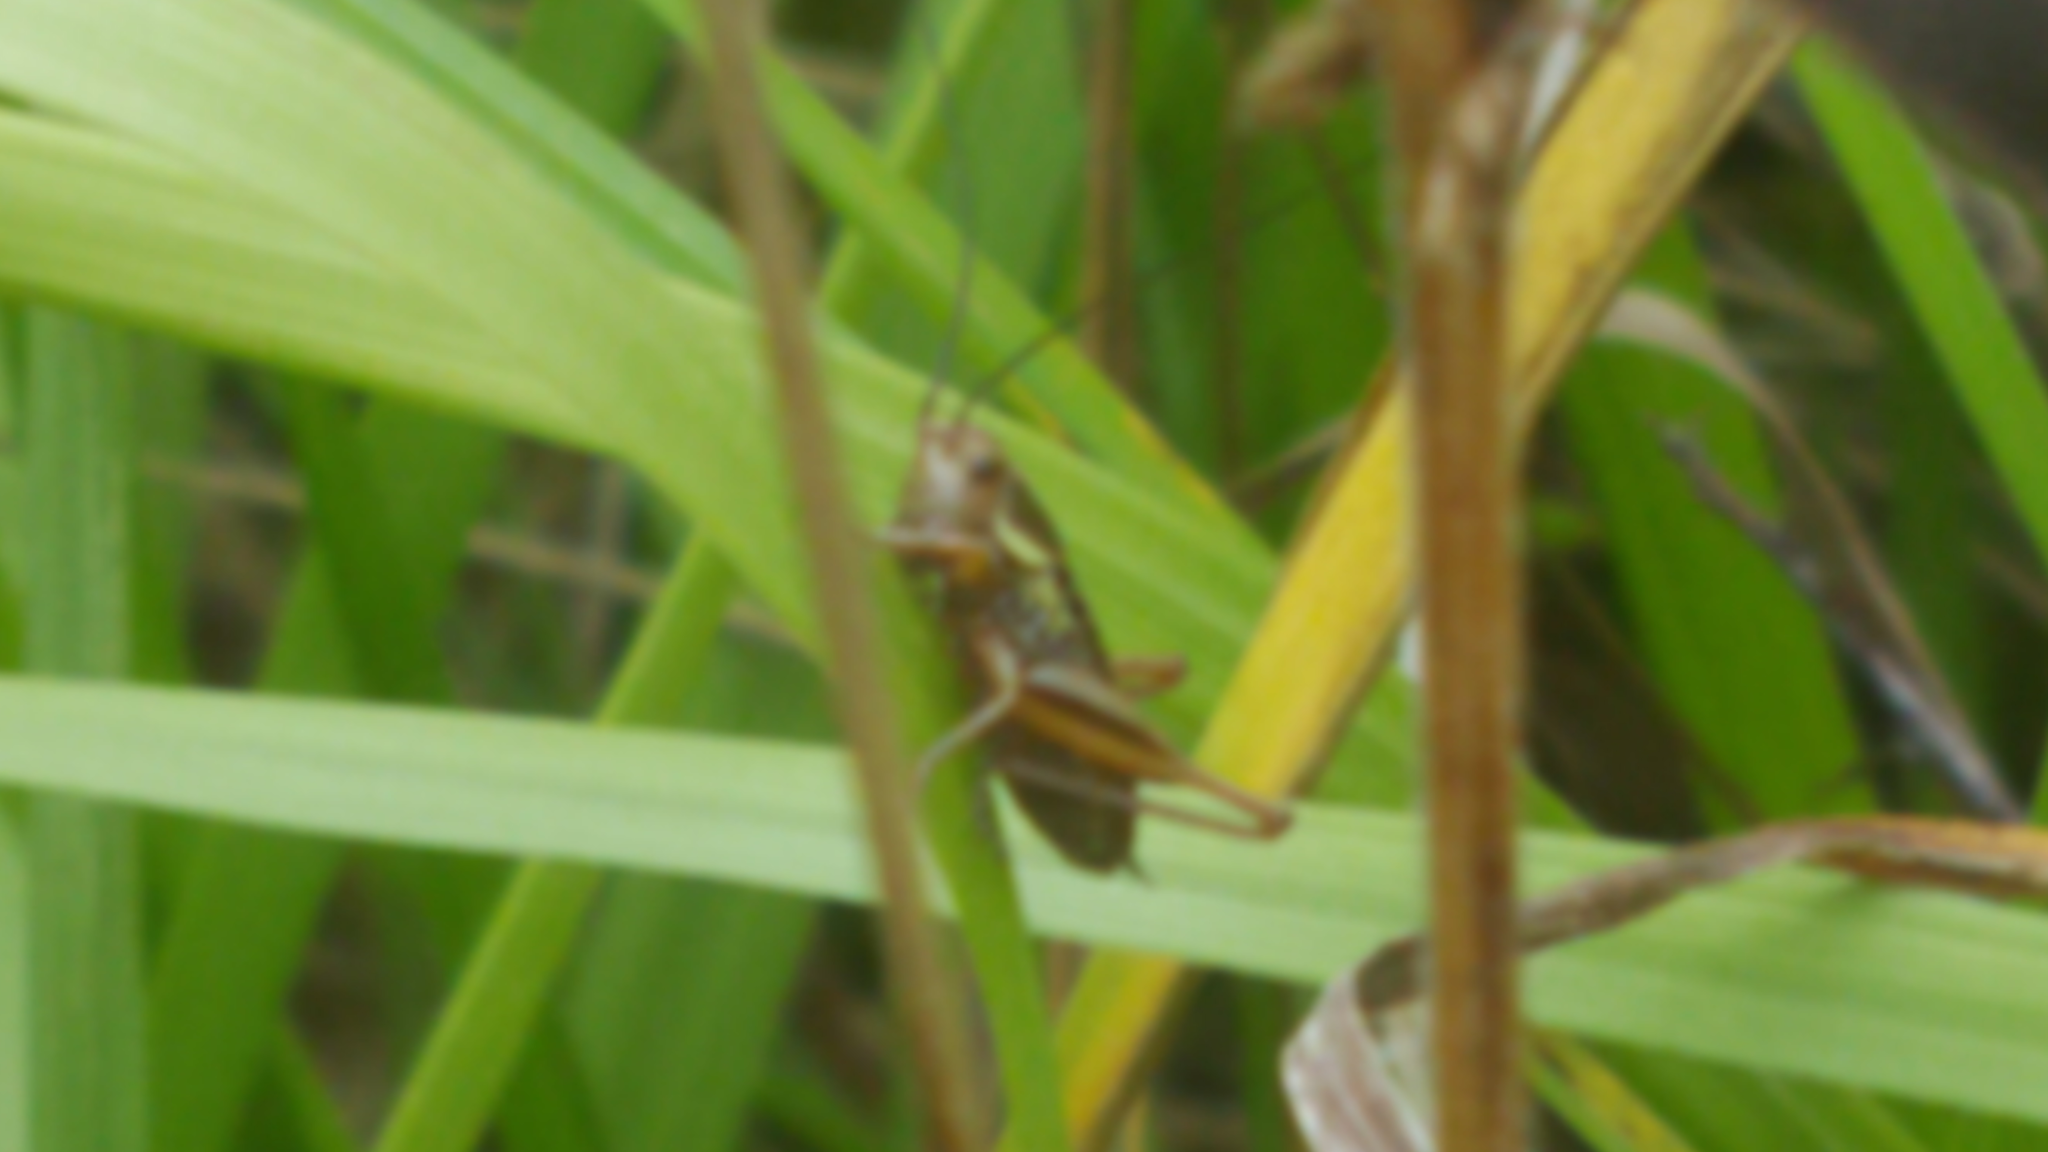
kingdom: Animalia
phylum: Arthropoda
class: Insecta
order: Orthoptera
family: Tettigoniidae
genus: Roeseliana
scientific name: Roeseliana roeselii
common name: Roesel's bush cricket
